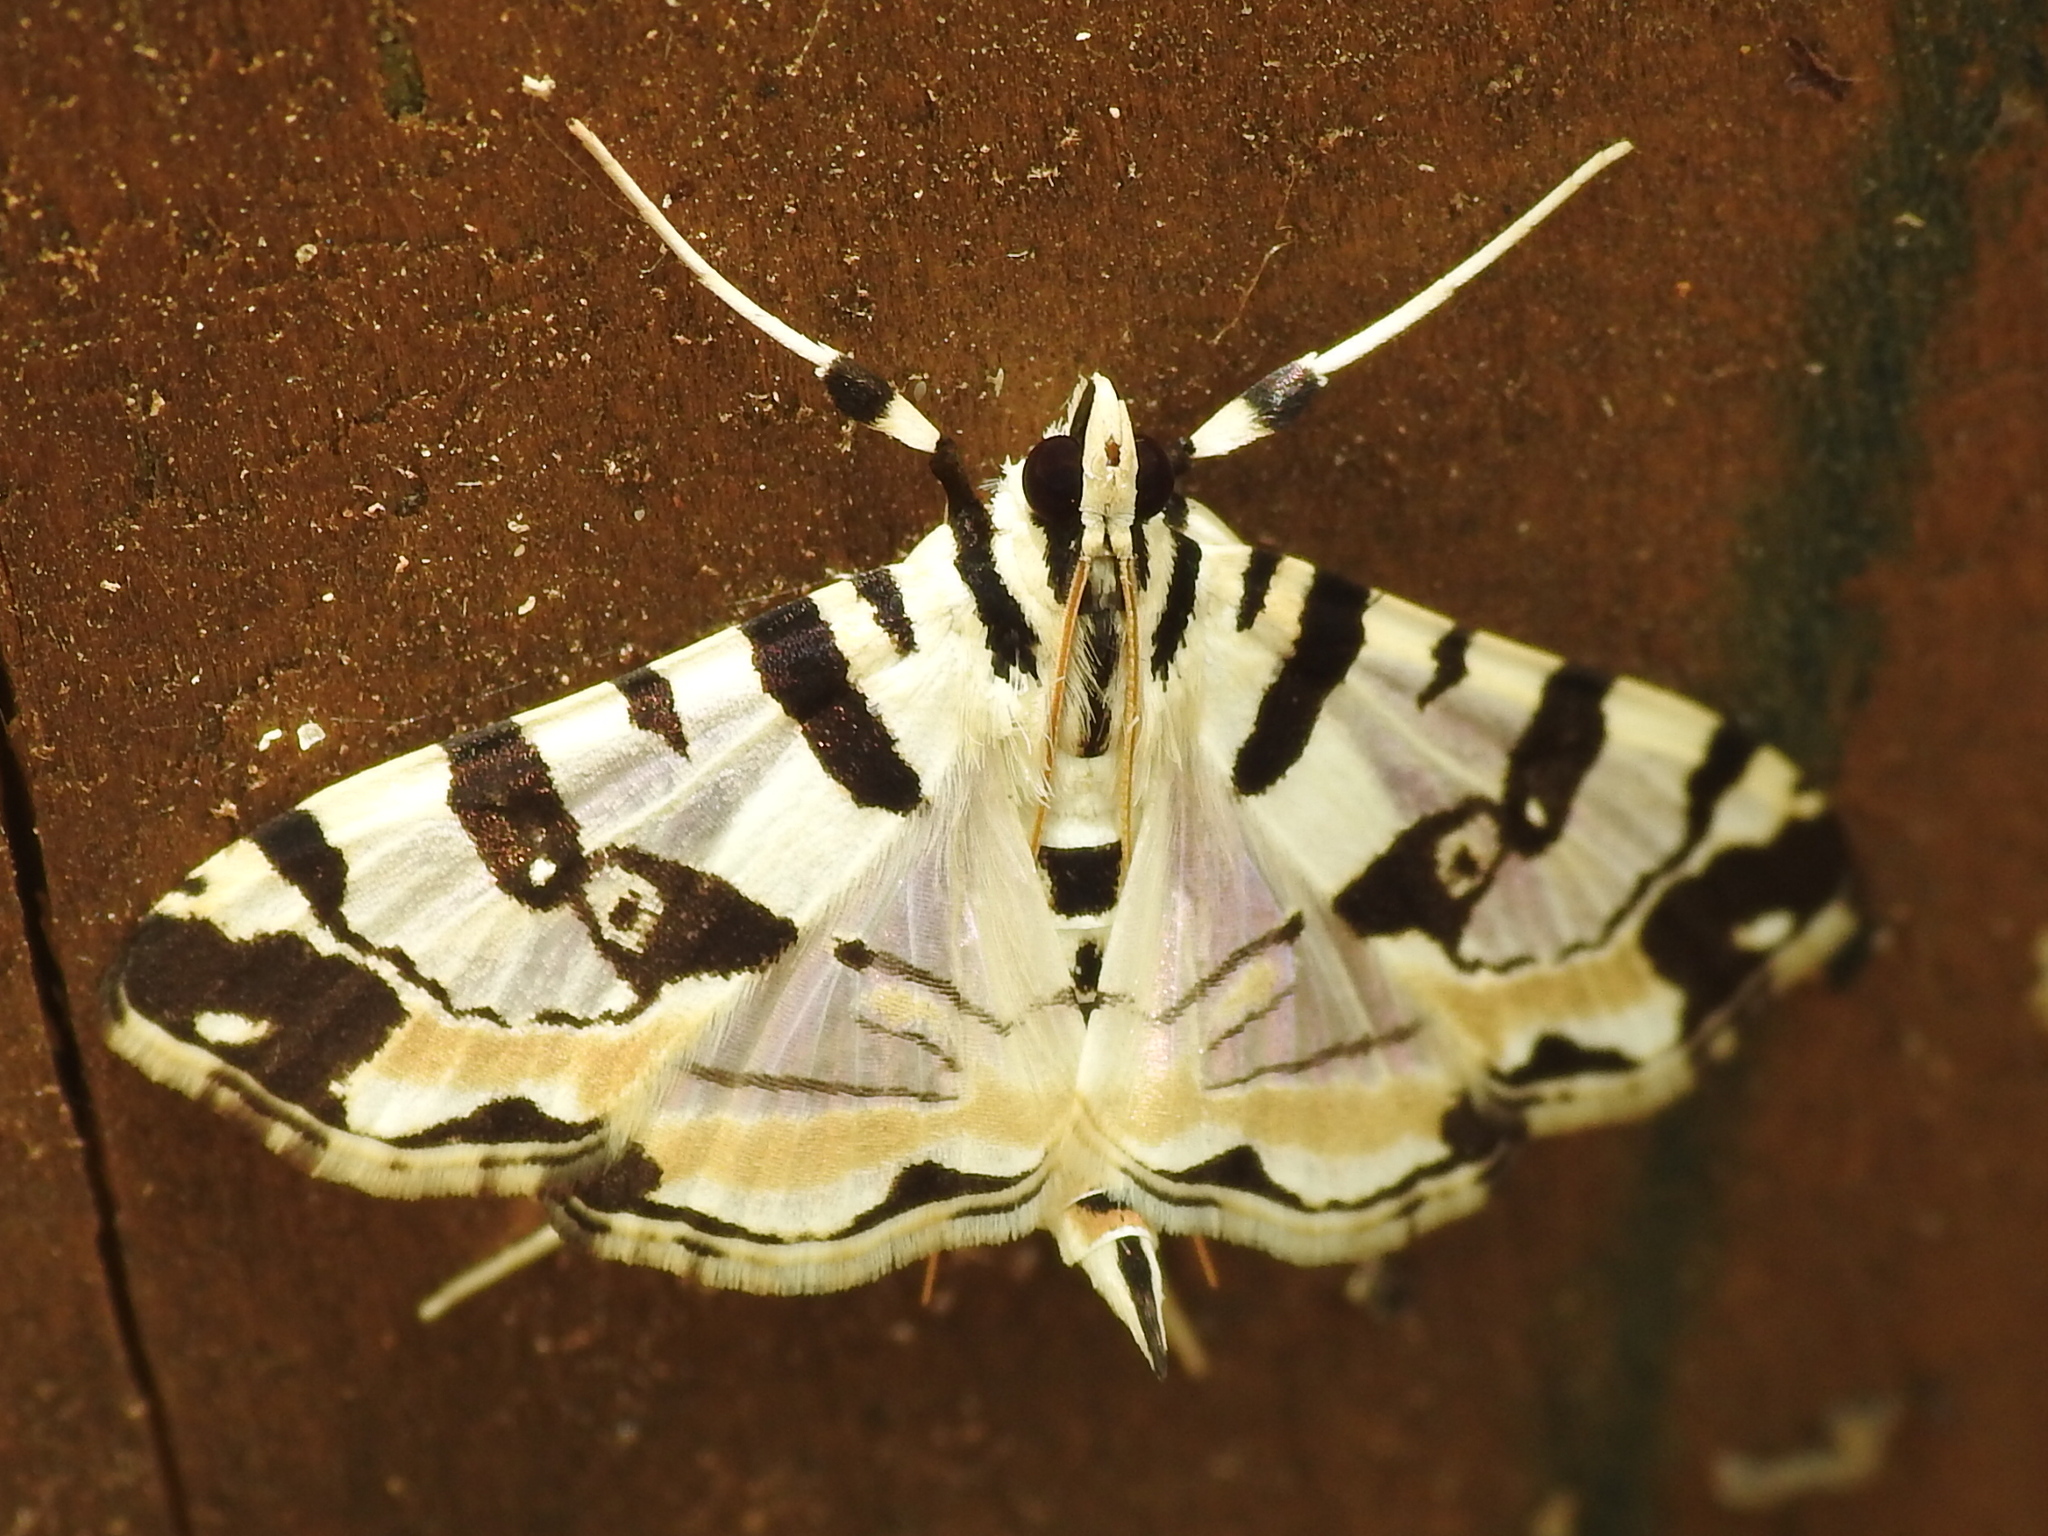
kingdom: Animalia
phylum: Arthropoda
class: Insecta
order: Lepidoptera
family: Crambidae
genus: Conchylodes
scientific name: Conchylodes salamisalis
